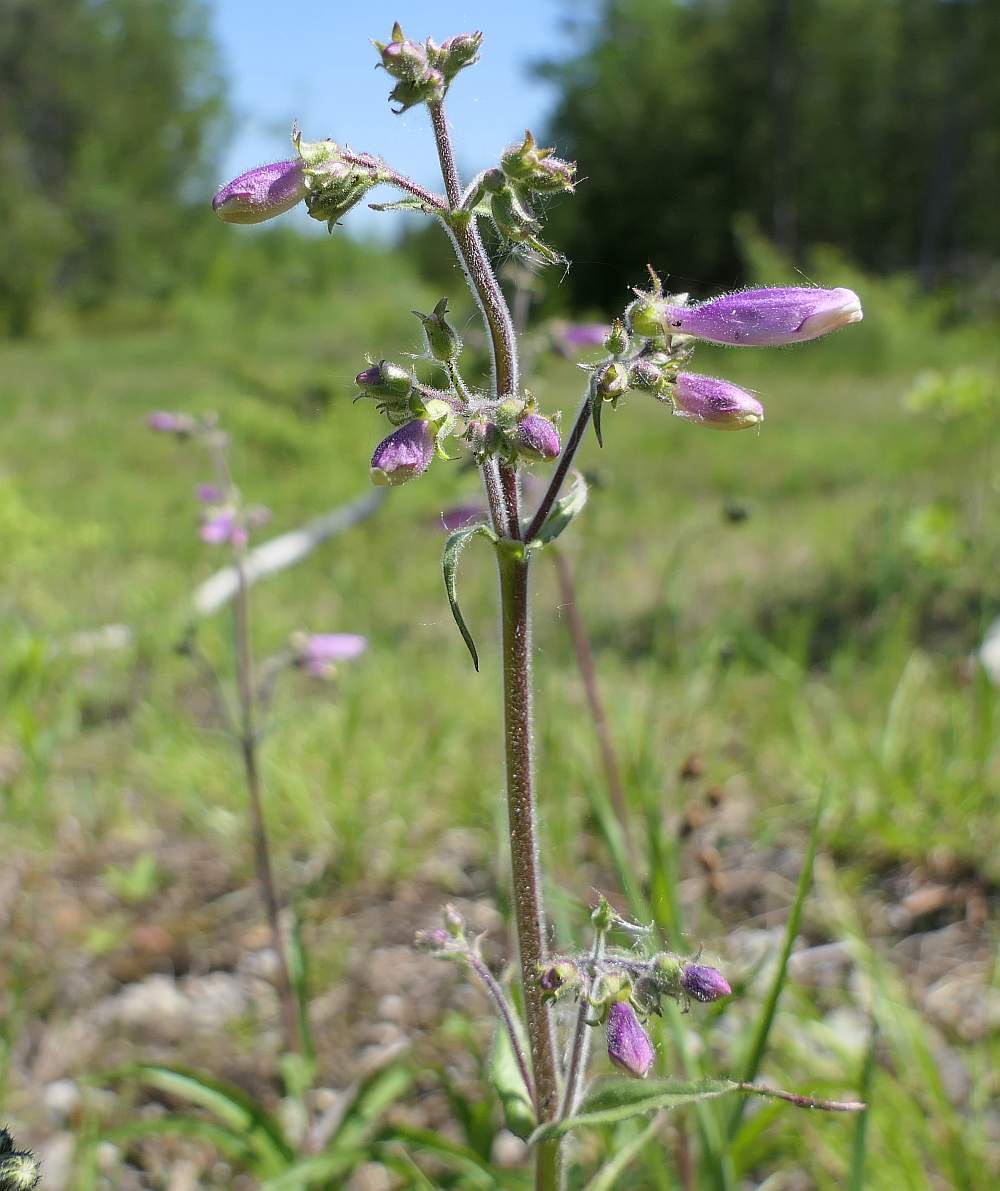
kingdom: Plantae
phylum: Tracheophyta
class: Magnoliopsida
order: Lamiales
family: Plantaginaceae
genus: Penstemon
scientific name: Penstemon hirsutus
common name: Hairy beardtongue
